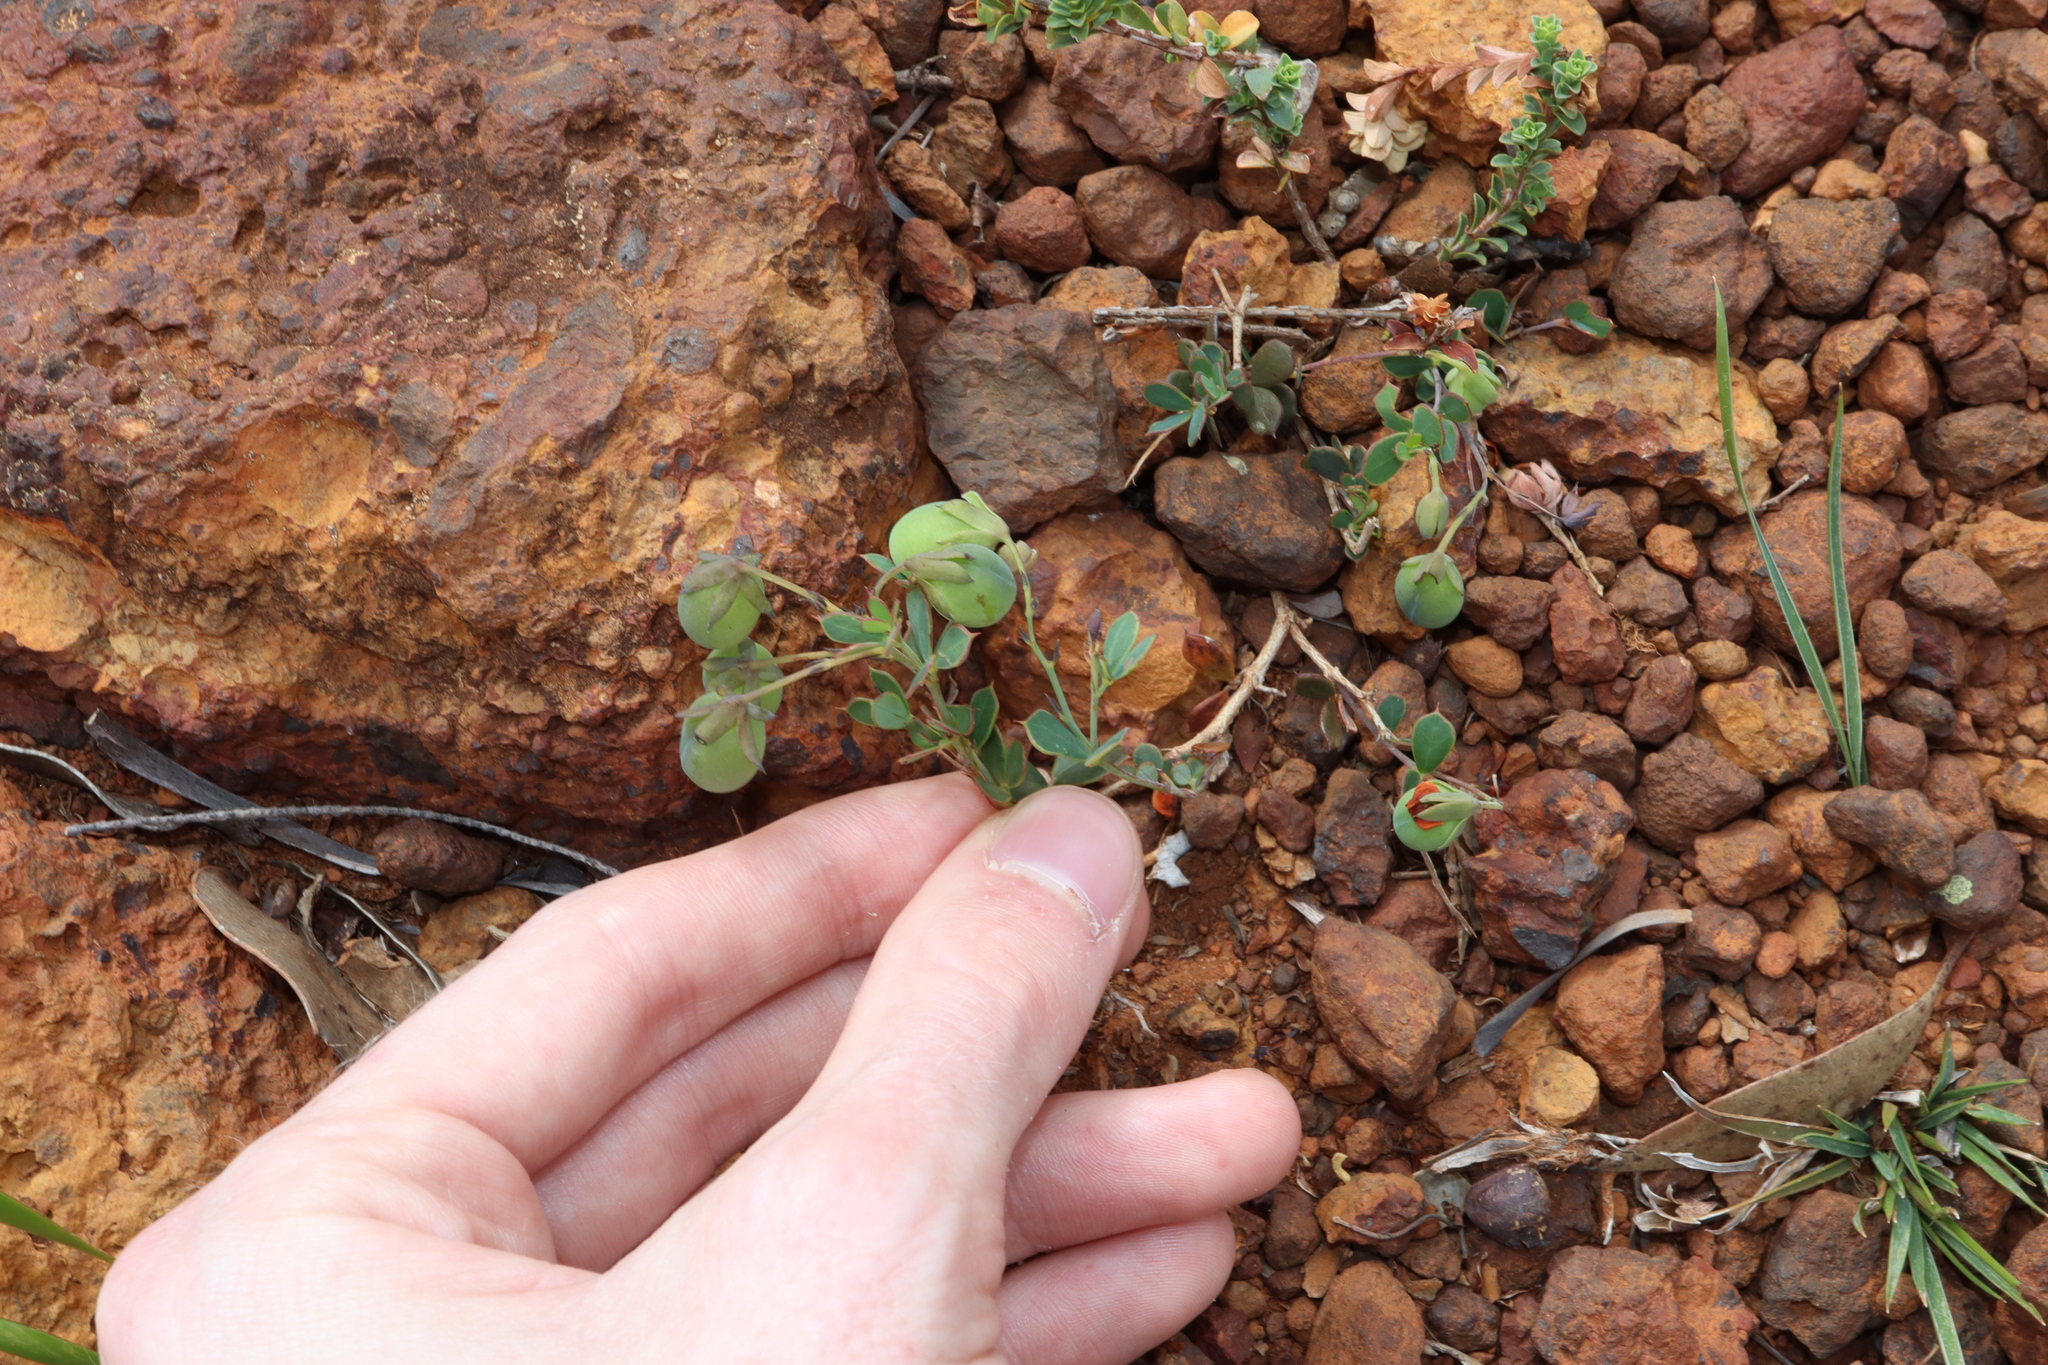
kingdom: Plantae
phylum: Tracheophyta
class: Magnoliopsida
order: Fabales
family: Fabaceae
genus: Gompholobium
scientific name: Gompholobium marginatum
